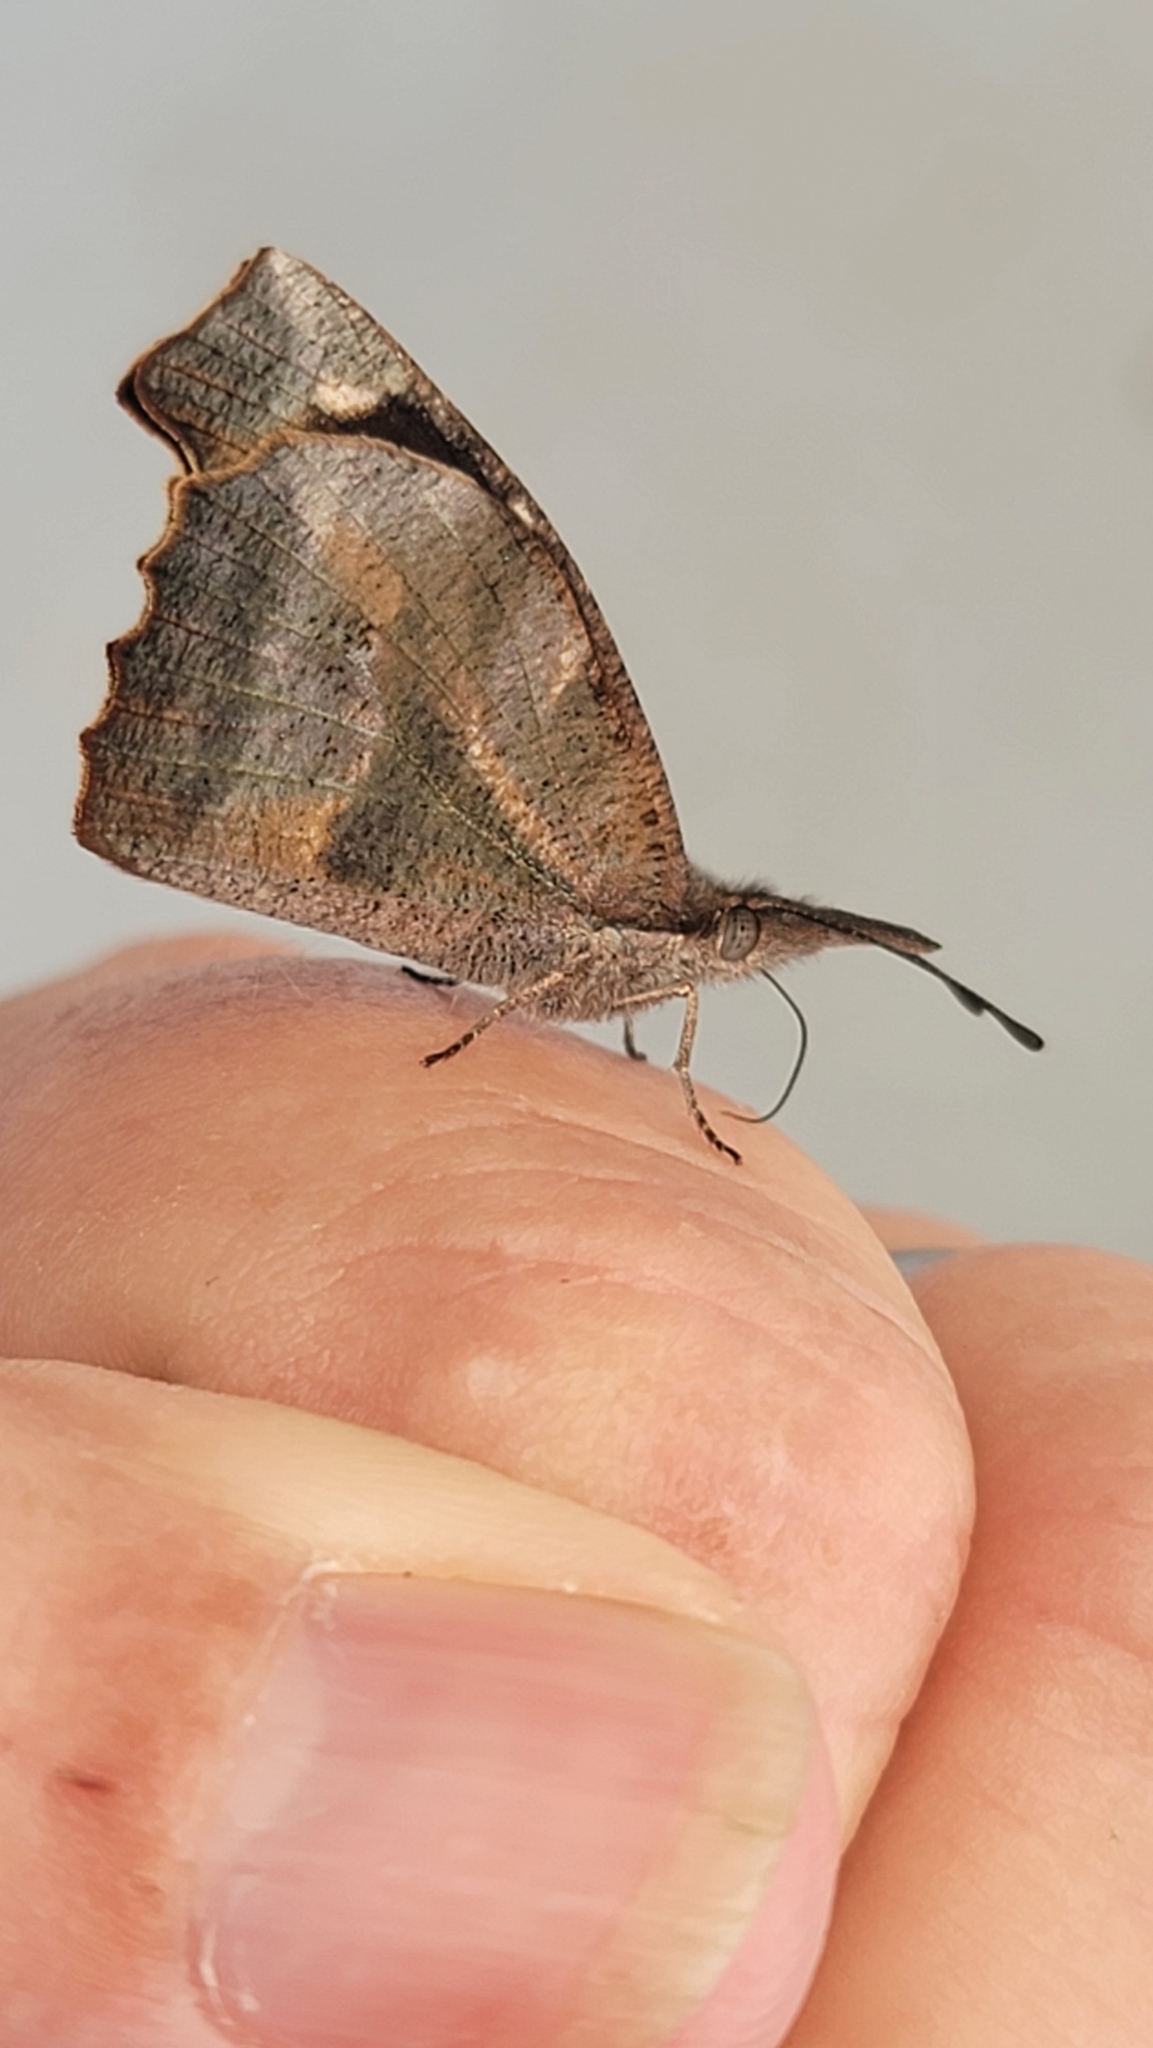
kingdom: Animalia
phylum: Arthropoda
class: Insecta
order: Lepidoptera
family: Nymphalidae
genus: Libytheana
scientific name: Libytheana carinenta
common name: American snout
